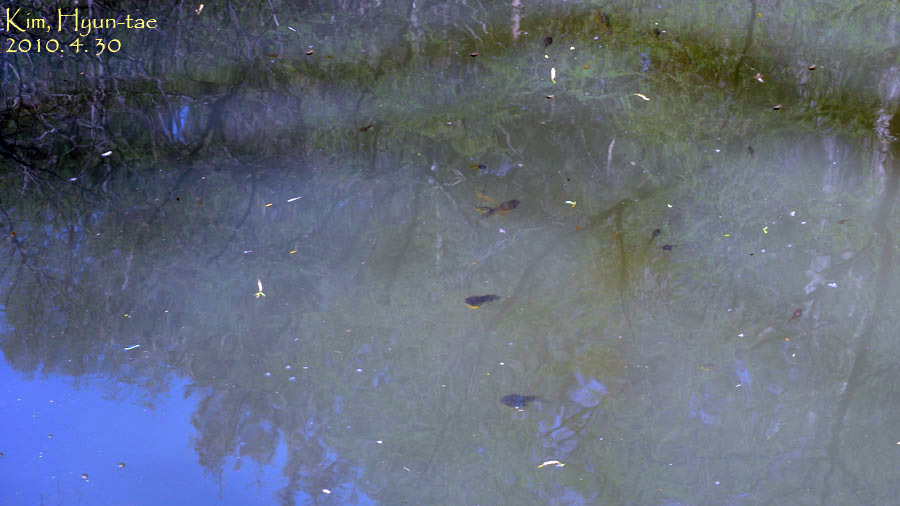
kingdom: Animalia
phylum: Chordata
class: Amphibia
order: Anura
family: Ranidae
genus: Lithobates
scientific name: Lithobates catesbeianus
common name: American bullfrog
